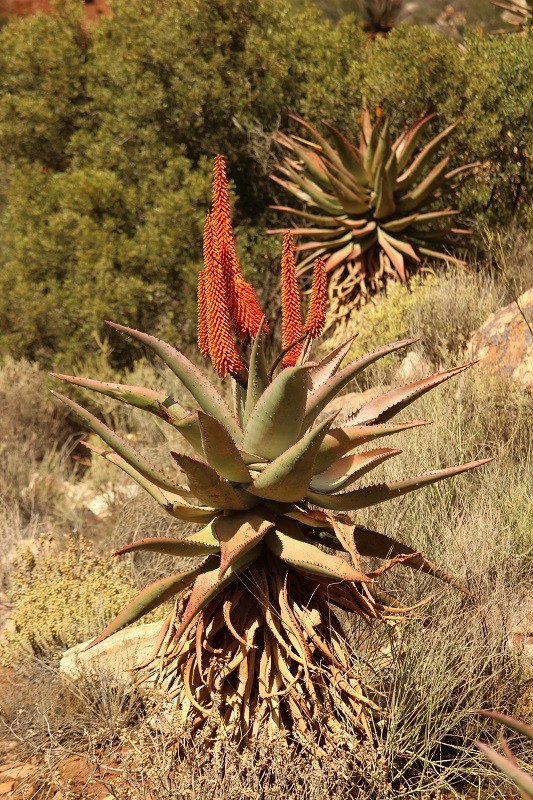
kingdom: Plantae
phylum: Tracheophyta
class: Liliopsida
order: Asparagales
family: Asphodelaceae
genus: Aloe
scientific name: Aloe ferox
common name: Bitter aloe
